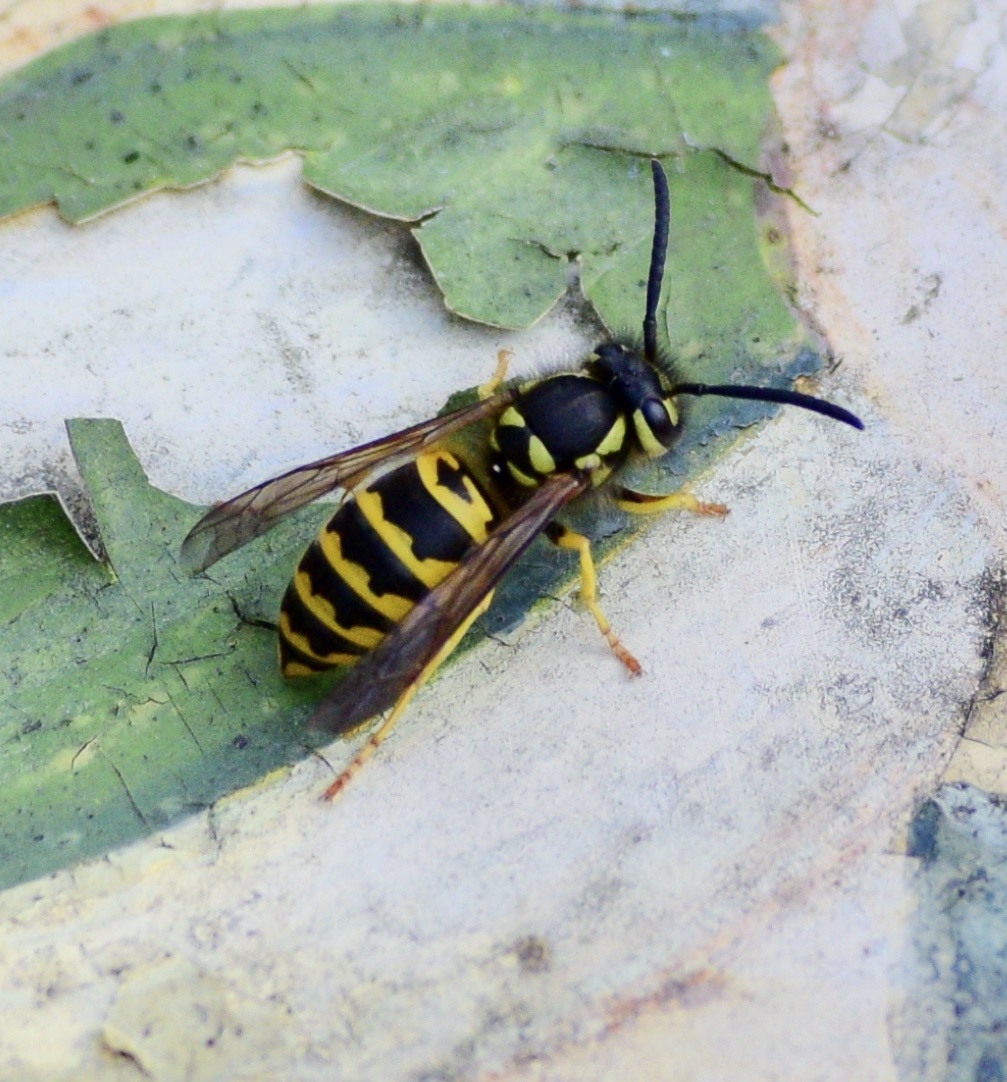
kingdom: Animalia
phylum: Arthropoda
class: Insecta
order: Hymenoptera
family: Vespidae
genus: Vespula
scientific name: Vespula maculifrons
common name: Eastern yellowjacket
